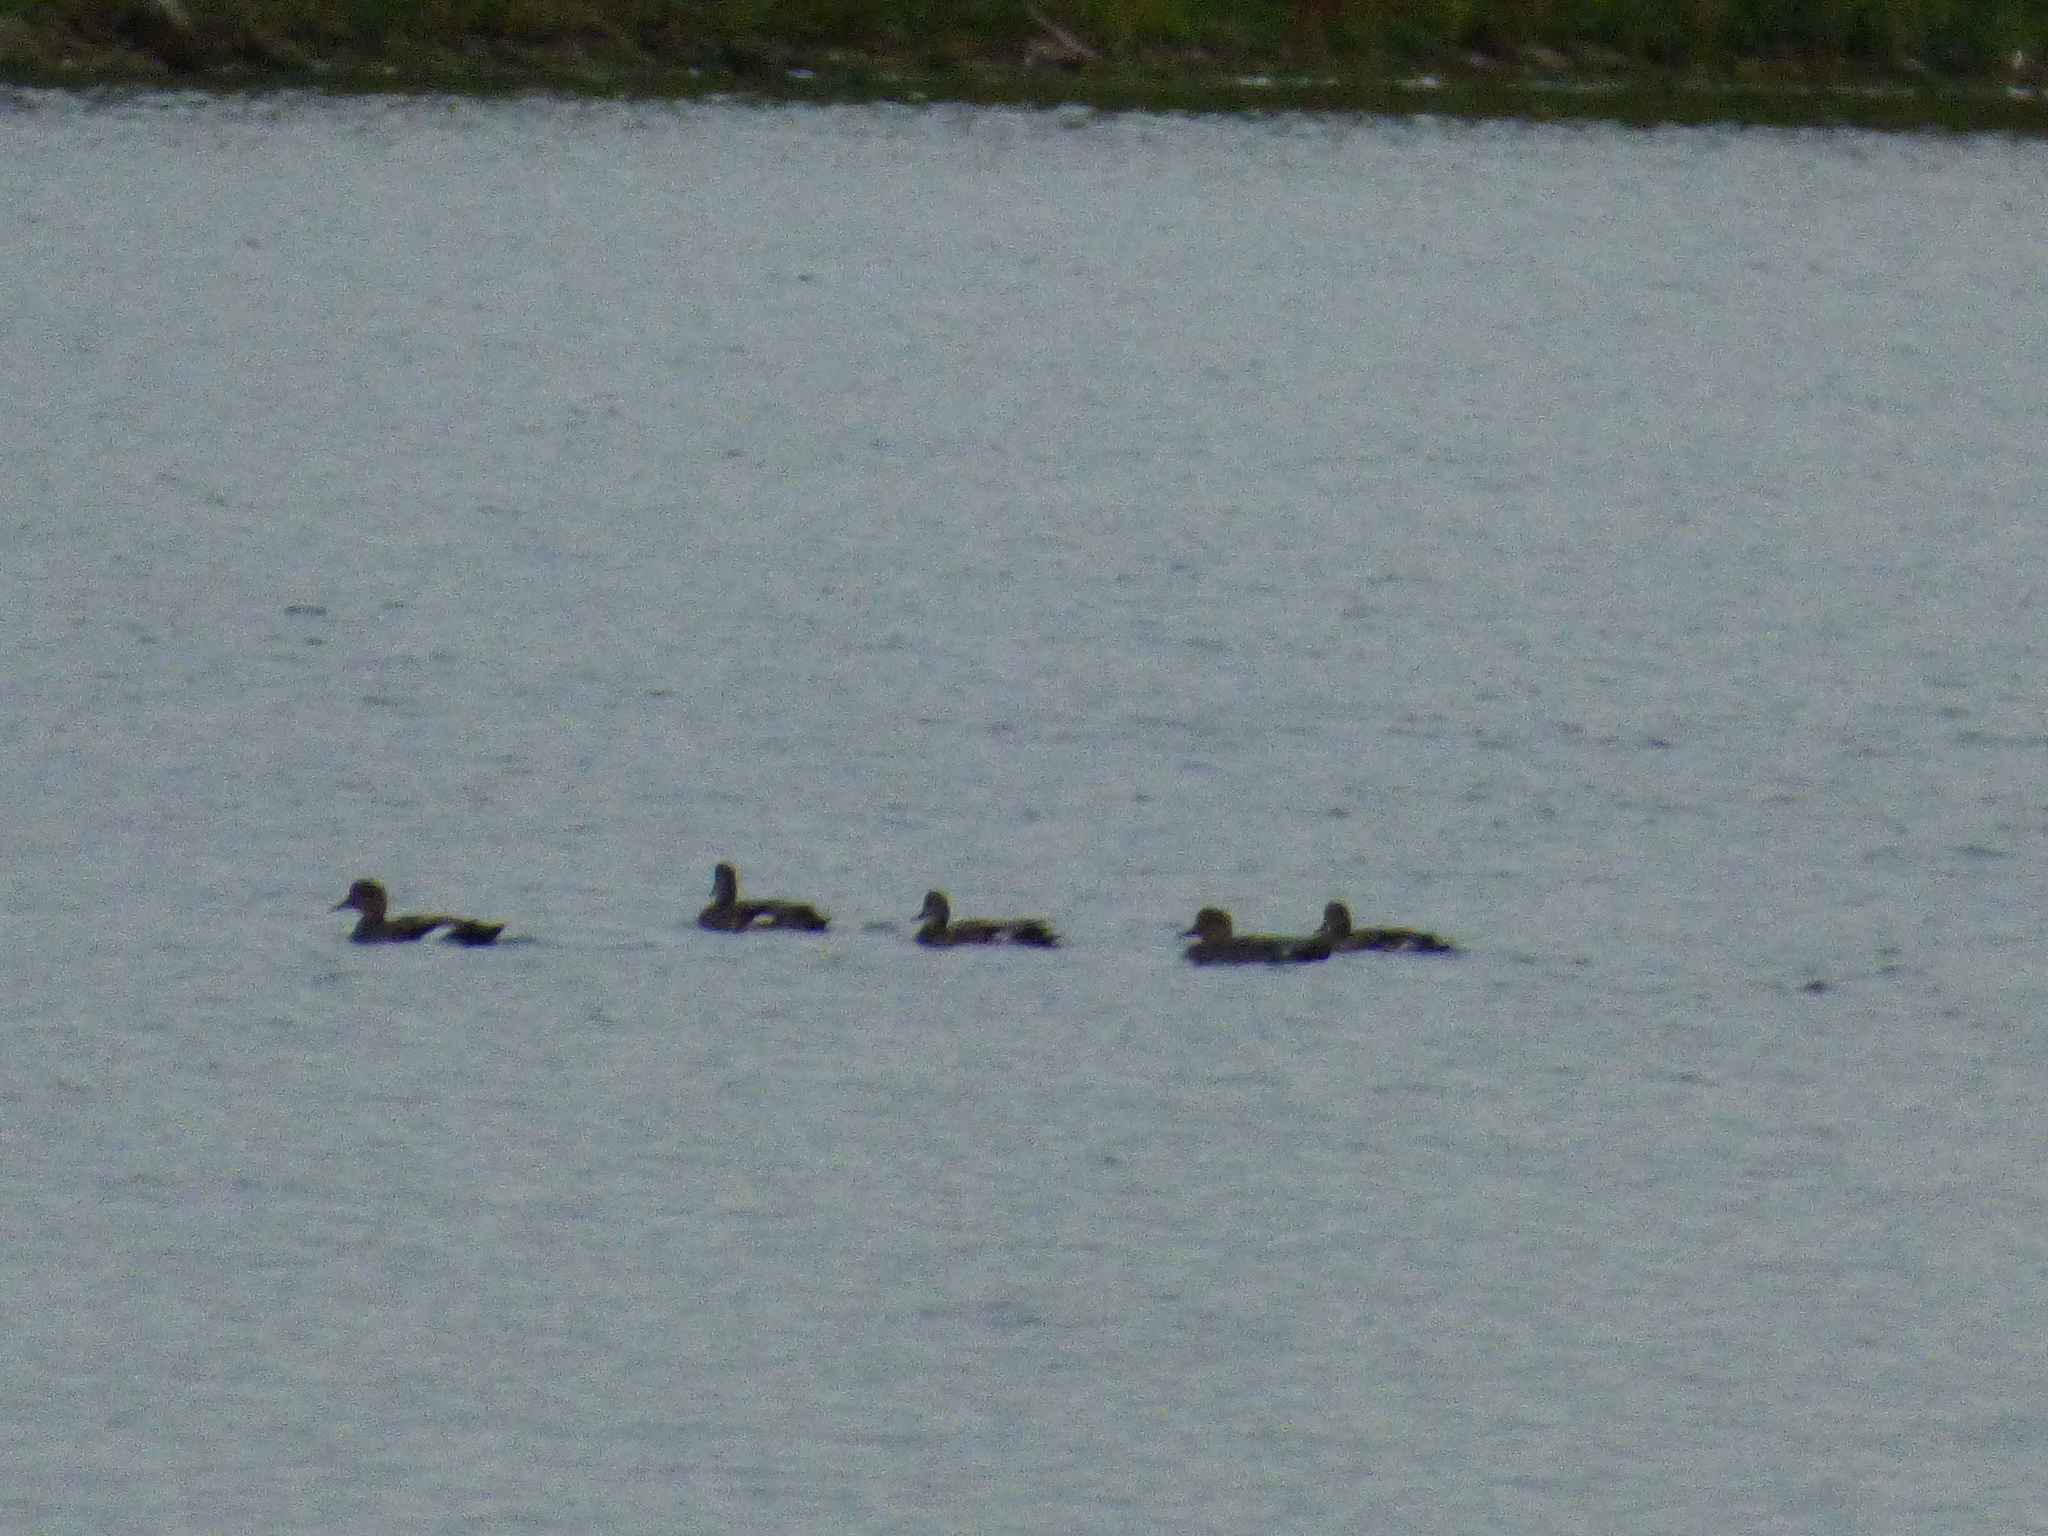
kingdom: Animalia
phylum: Chordata
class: Aves
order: Anseriformes
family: Anatidae
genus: Mareca
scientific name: Mareca strepera
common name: Gadwall
